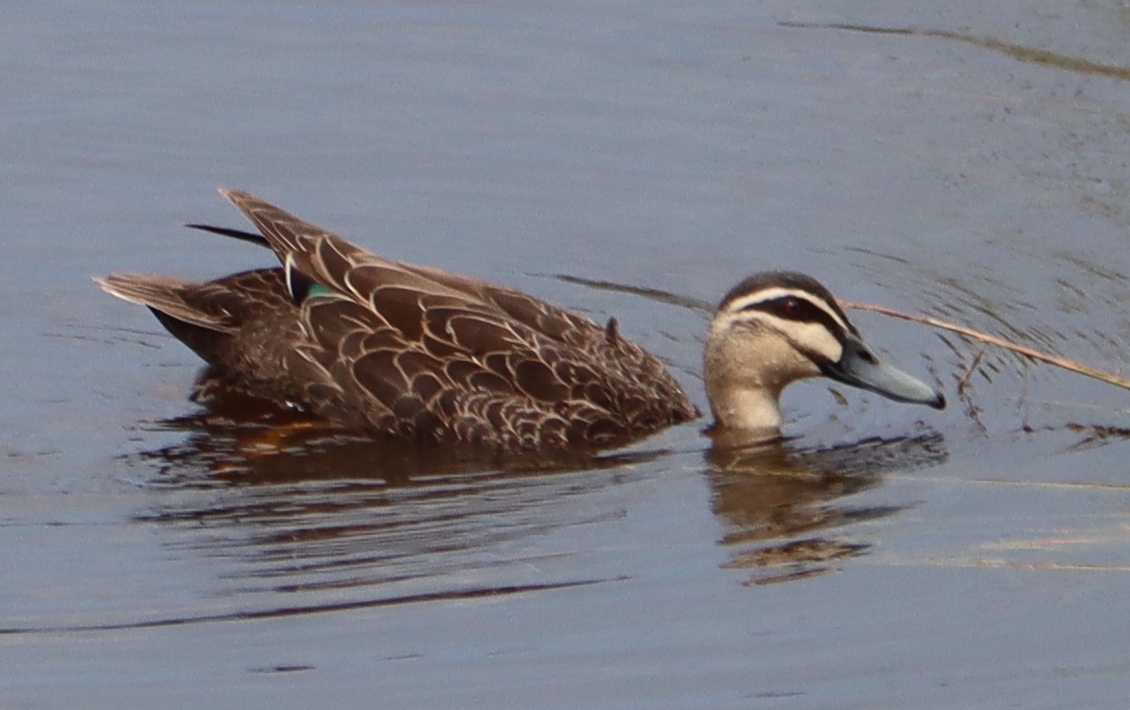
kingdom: Animalia
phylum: Chordata
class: Aves
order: Anseriformes
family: Anatidae
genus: Anas
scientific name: Anas superciliosa
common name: Pacific black duck
